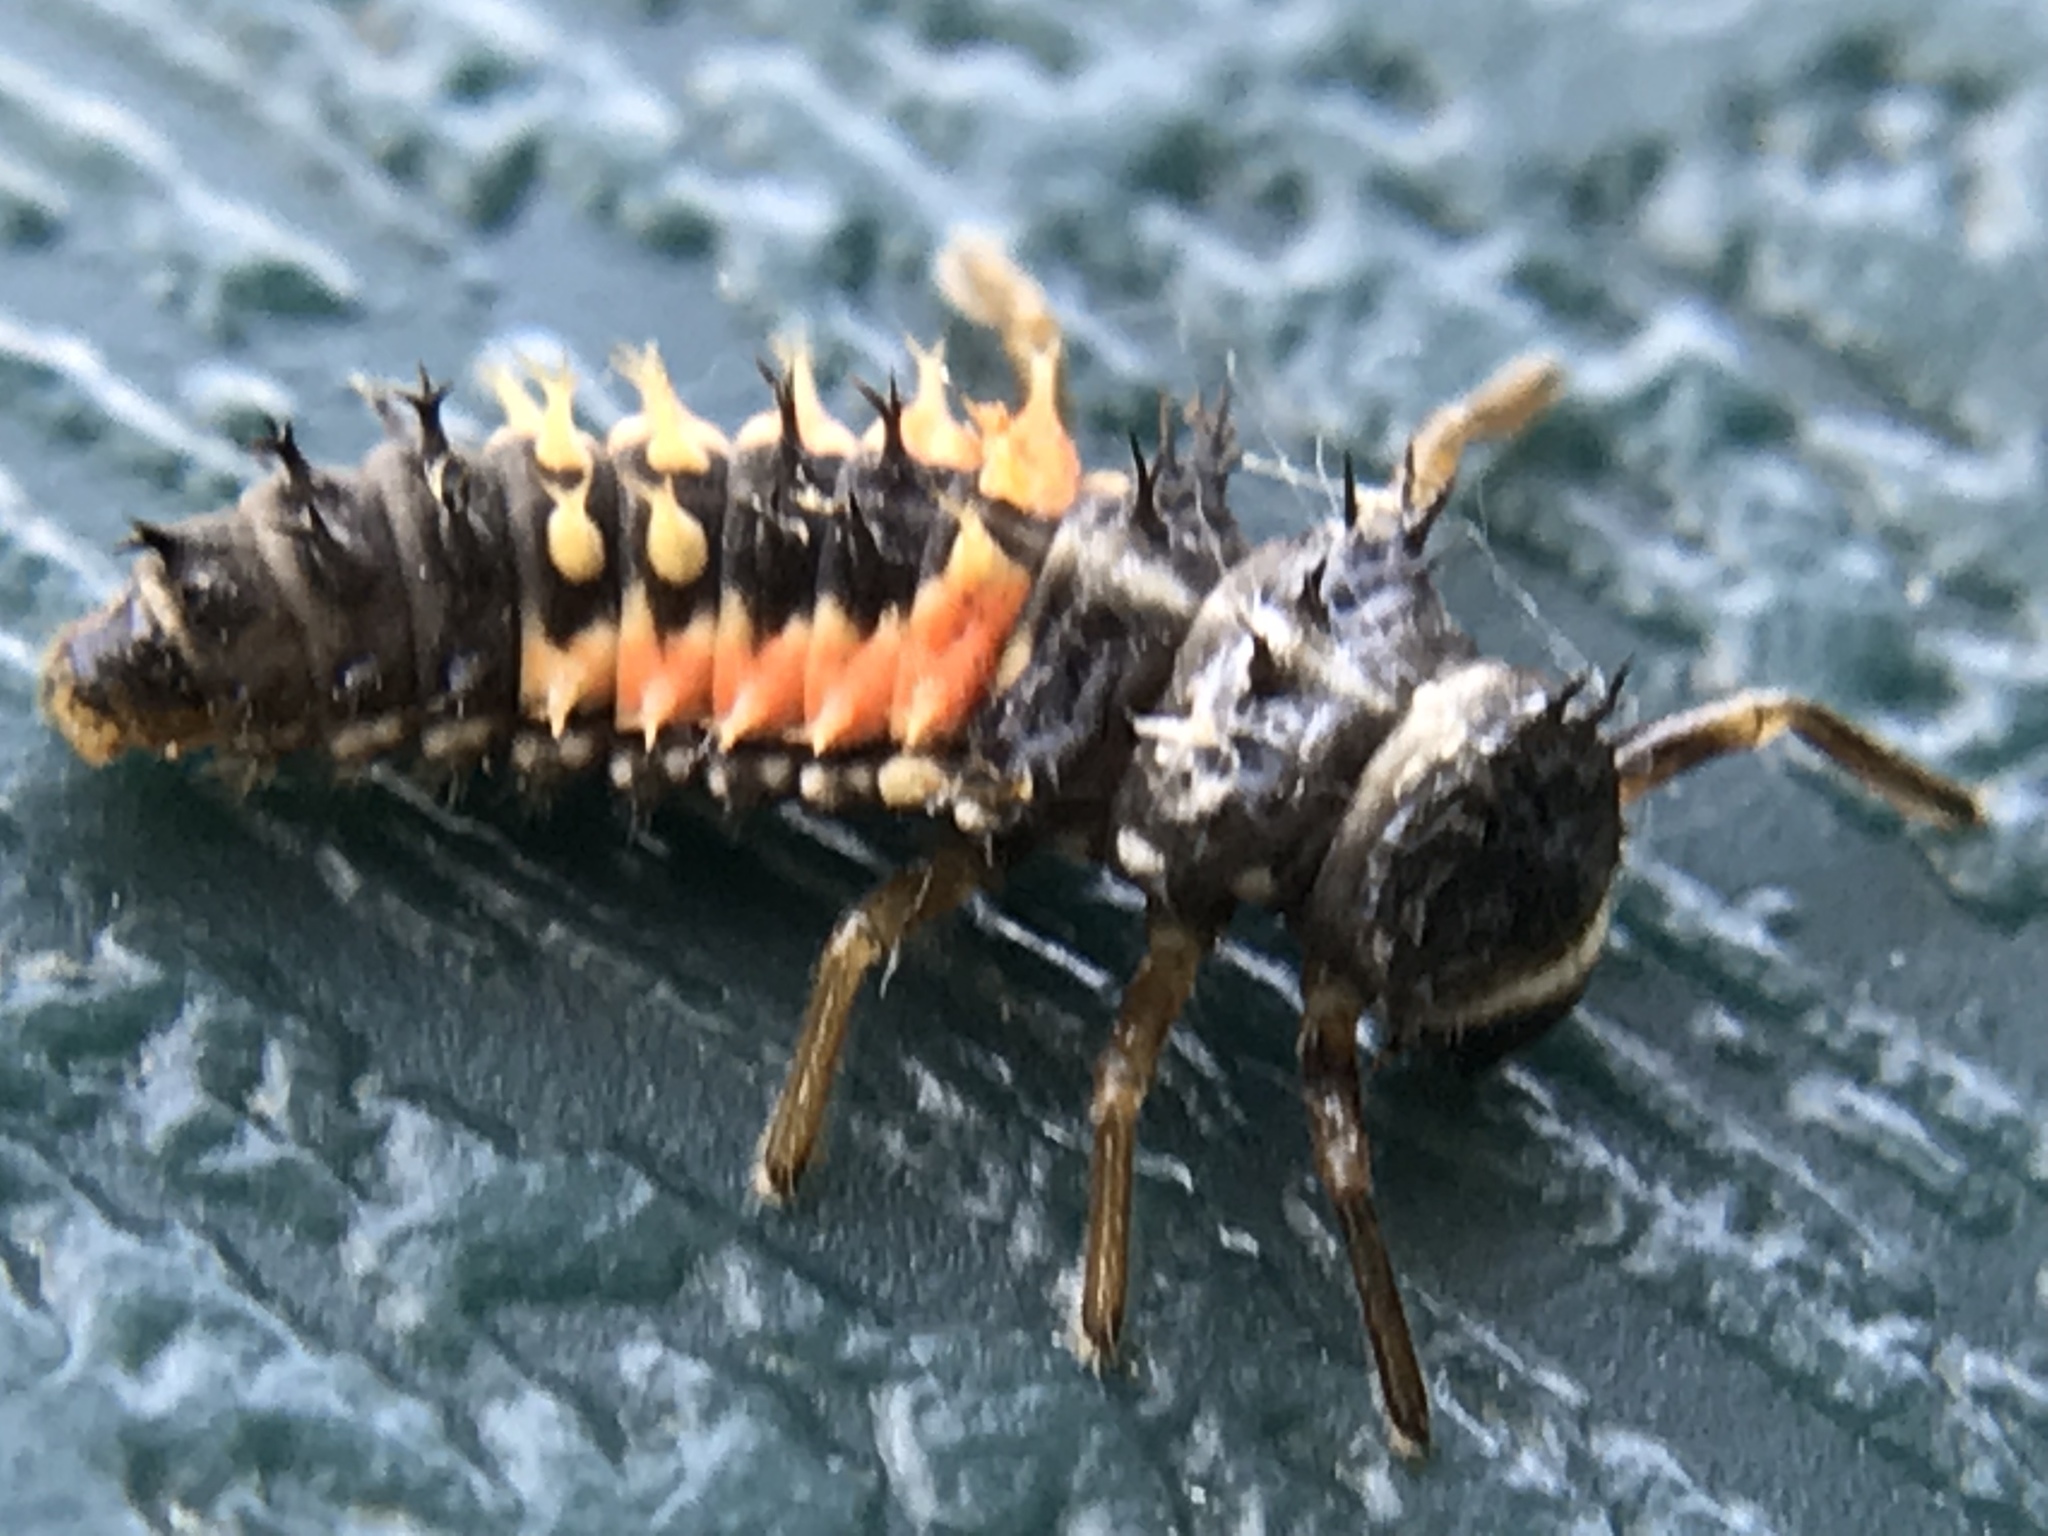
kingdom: Animalia
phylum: Arthropoda
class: Insecta
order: Coleoptera
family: Coccinellidae
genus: Harmonia
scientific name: Harmonia axyridis
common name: Harlequin ladybird
